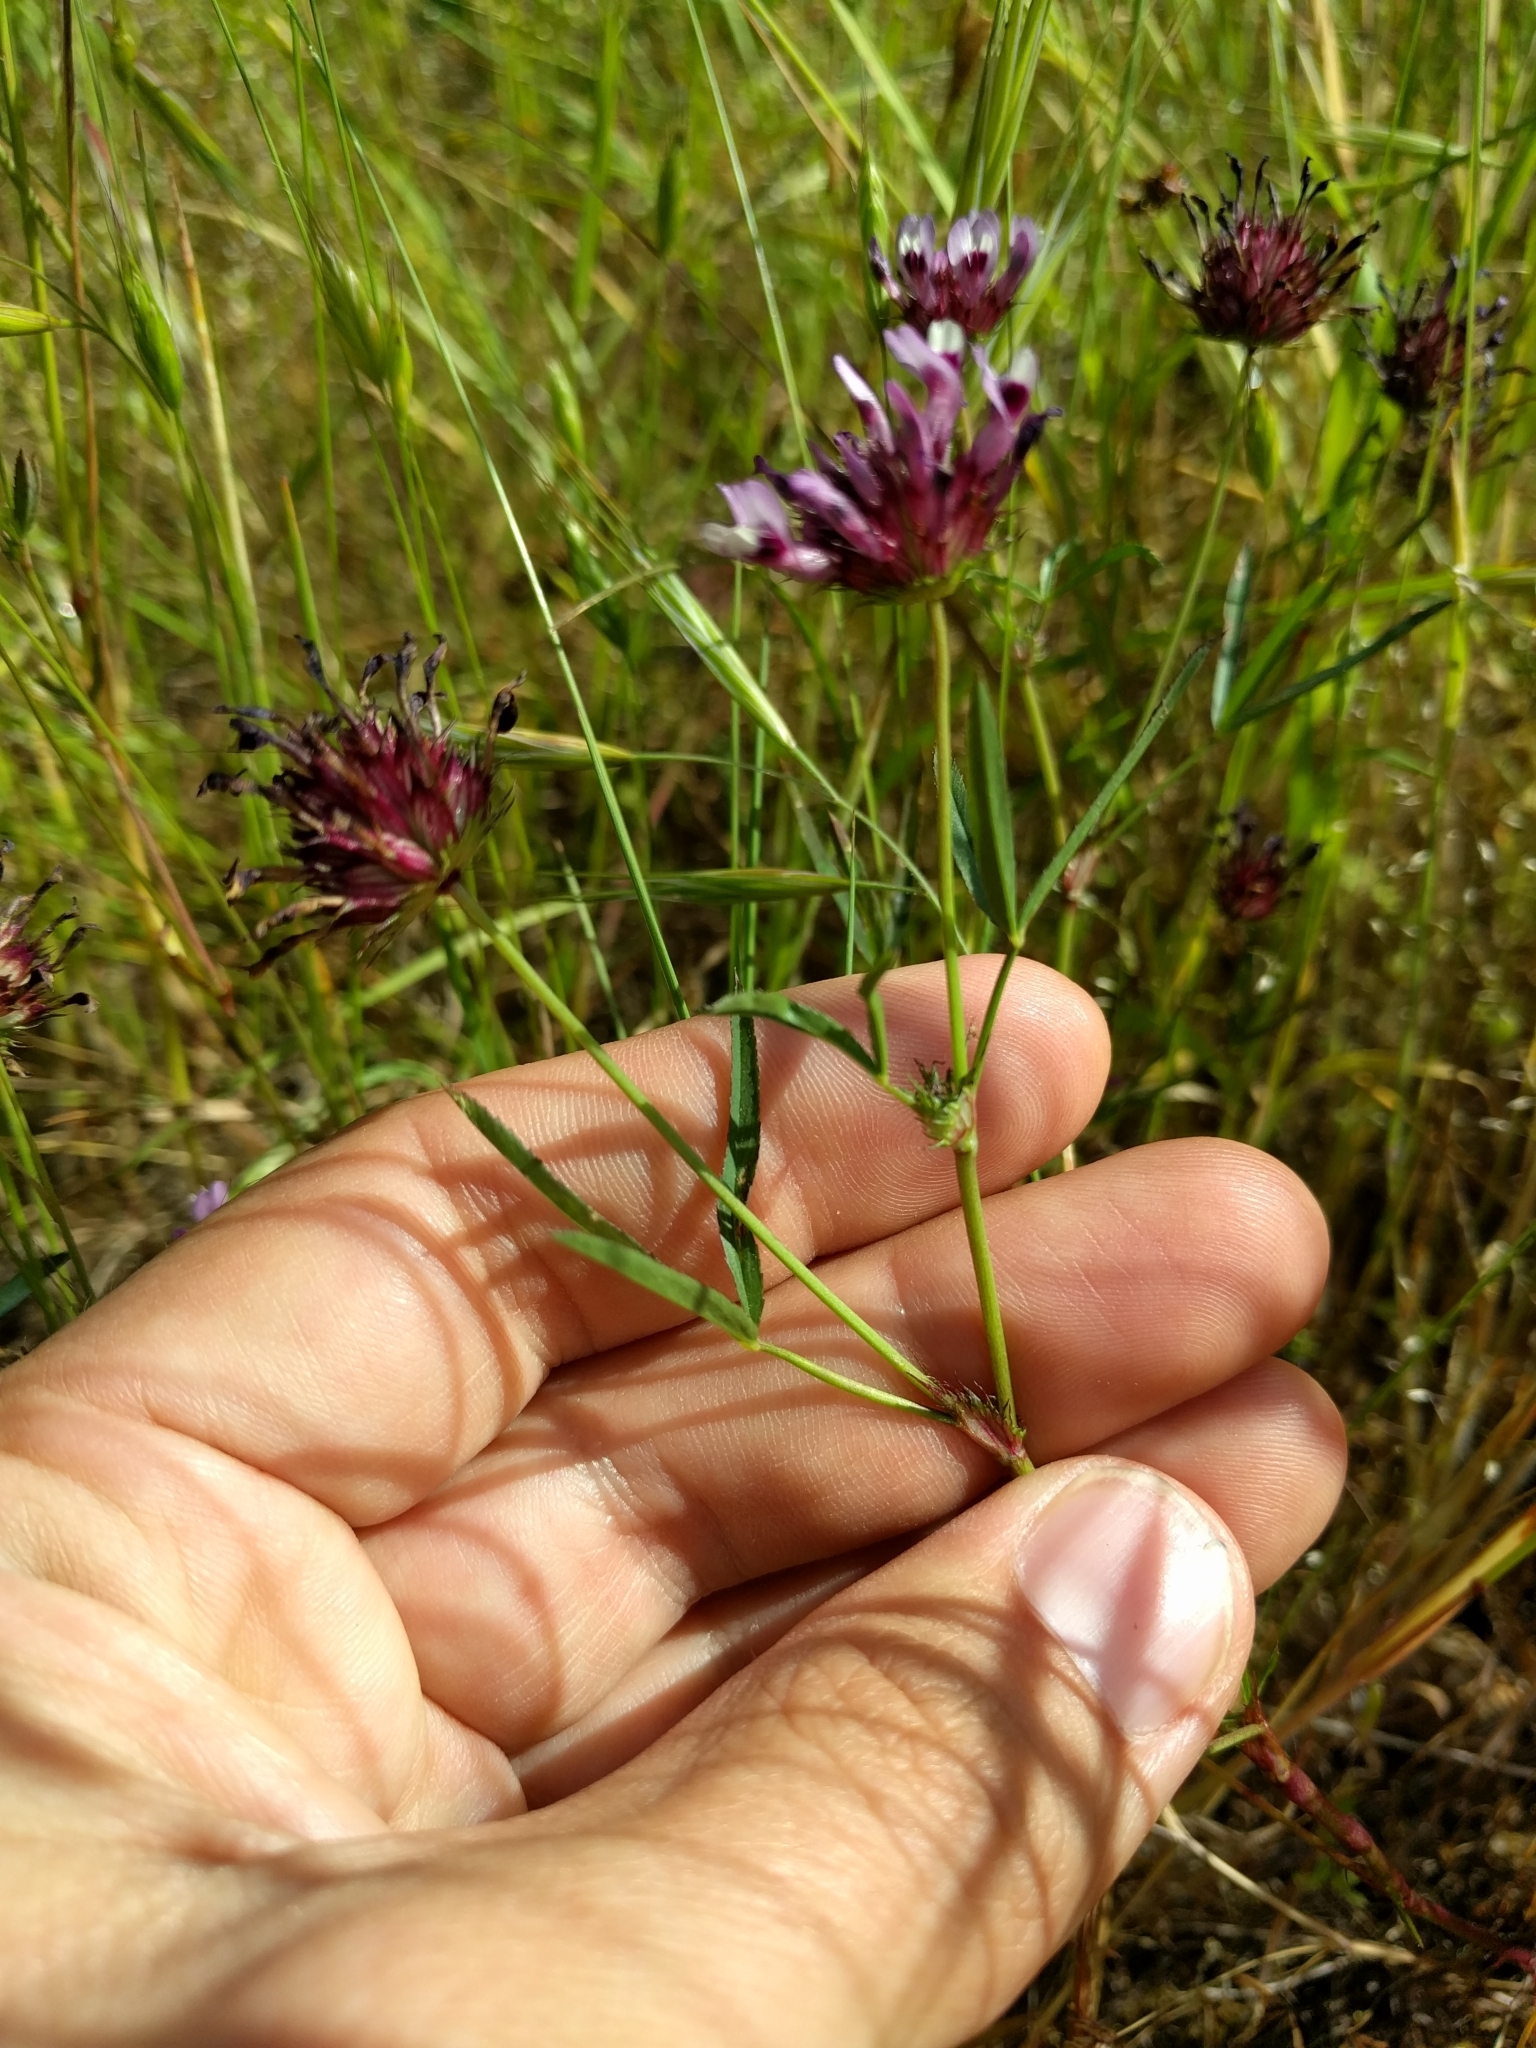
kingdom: Plantae
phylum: Tracheophyta
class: Magnoliopsida
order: Fabales
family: Fabaceae
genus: Trifolium
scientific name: Trifolium willdenovii
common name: Tomcat clover
